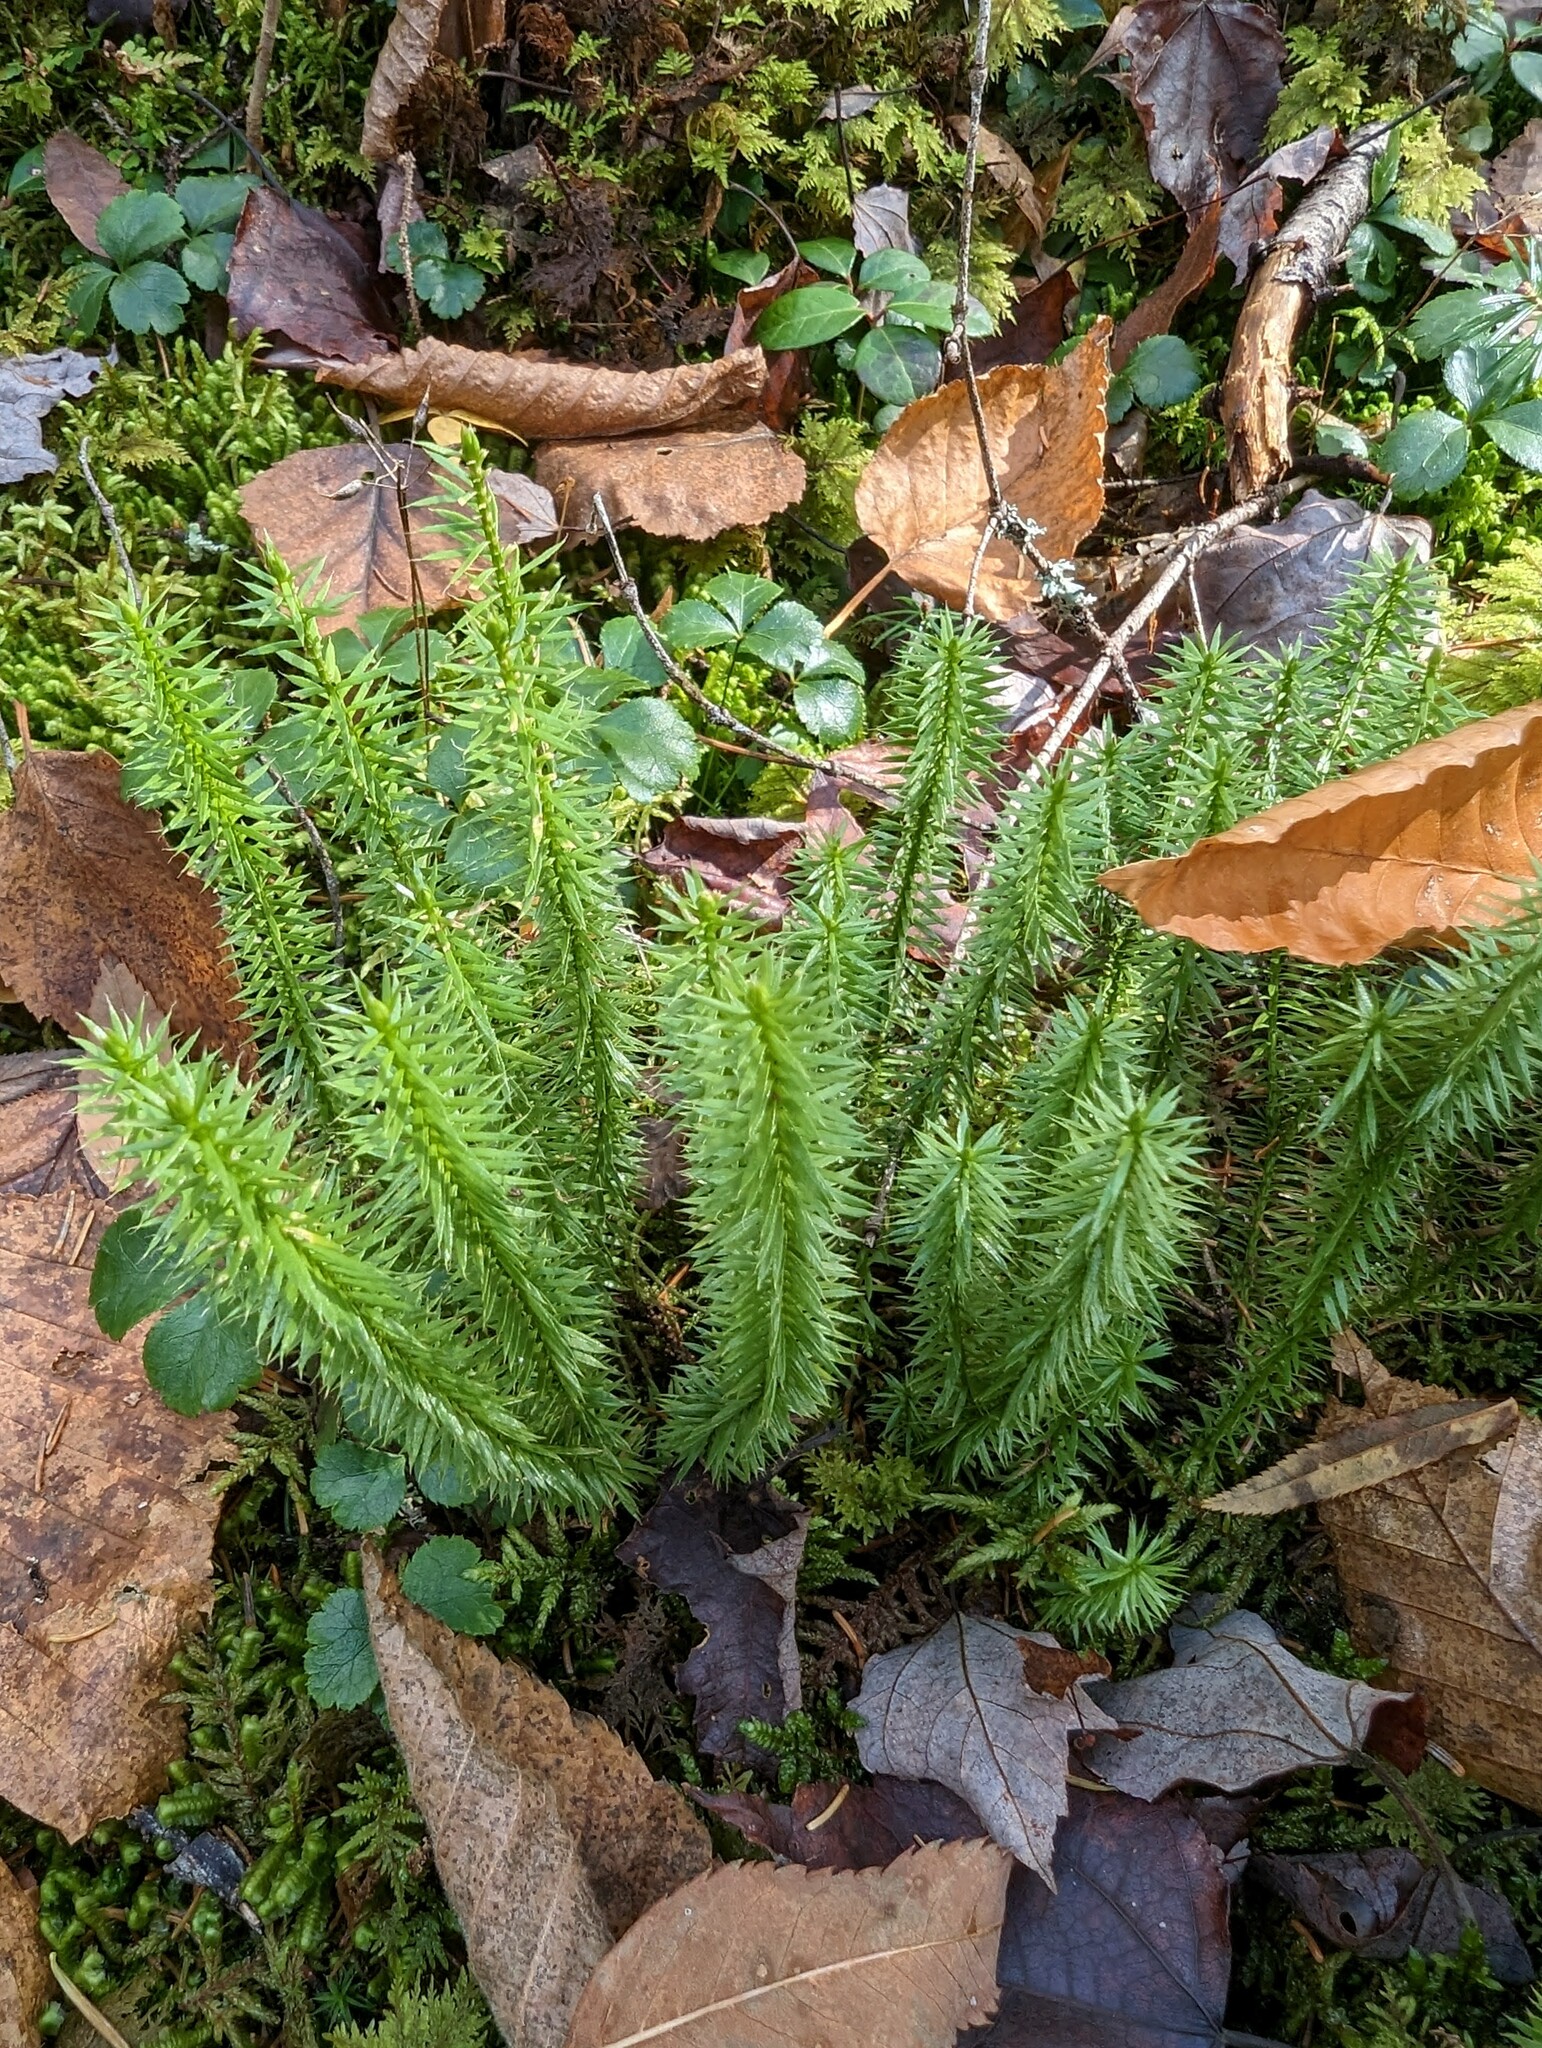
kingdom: Plantae
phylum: Tracheophyta
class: Lycopodiopsida
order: Lycopodiales
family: Lycopodiaceae
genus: Spinulum
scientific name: Spinulum annotinum
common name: Interrupted club-moss
